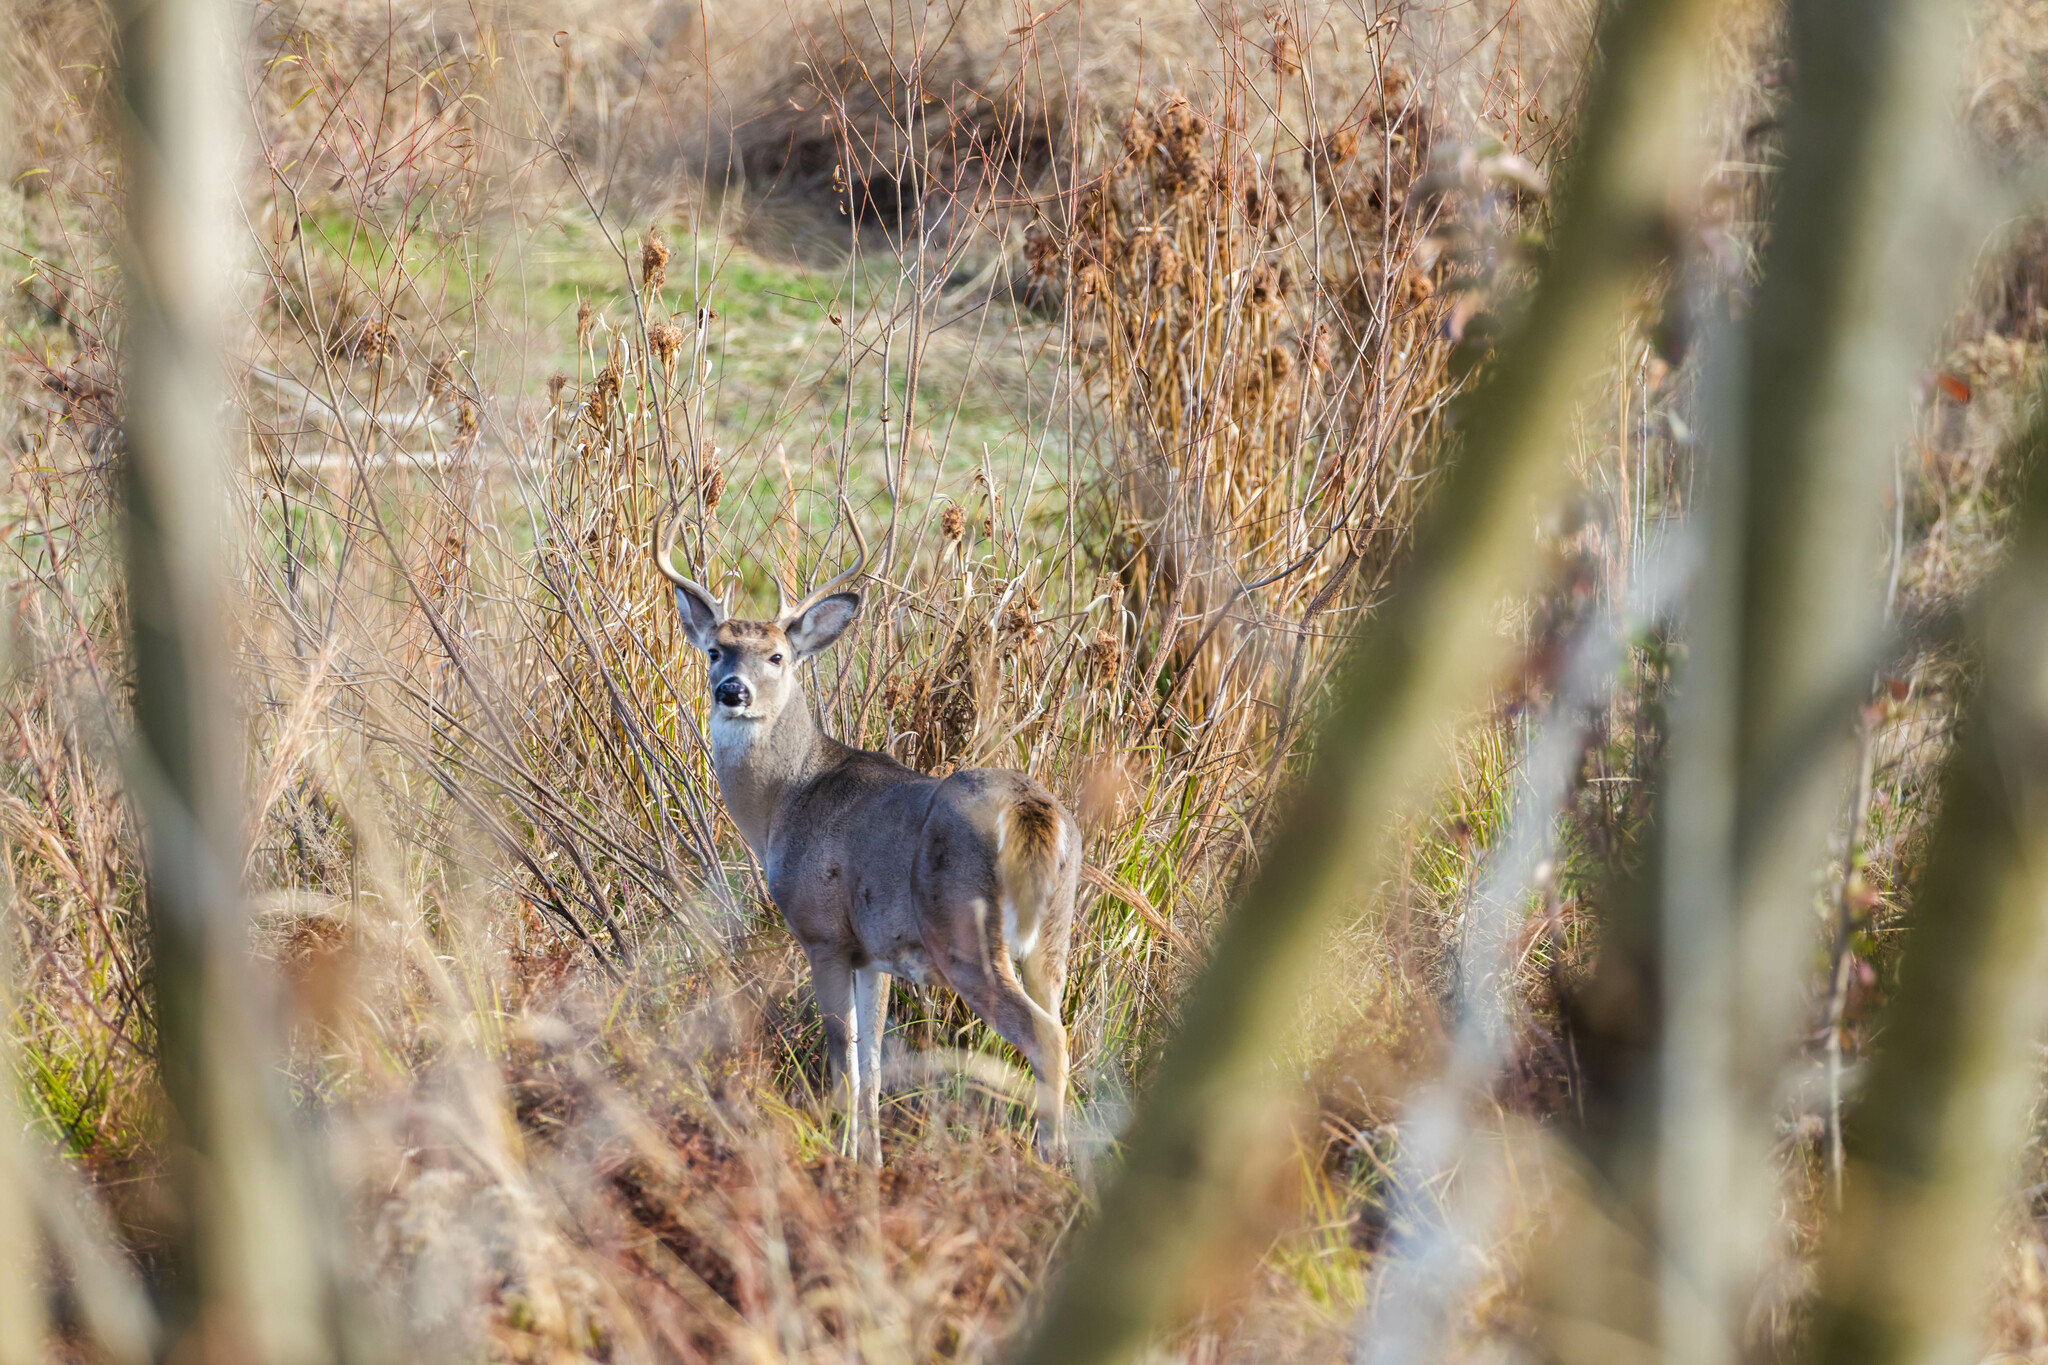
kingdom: Animalia
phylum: Chordata
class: Mammalia
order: Artiodactyla
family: Cervidae
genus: Odocoileus
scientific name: Odocoileus virginianus
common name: White-tailed deer
